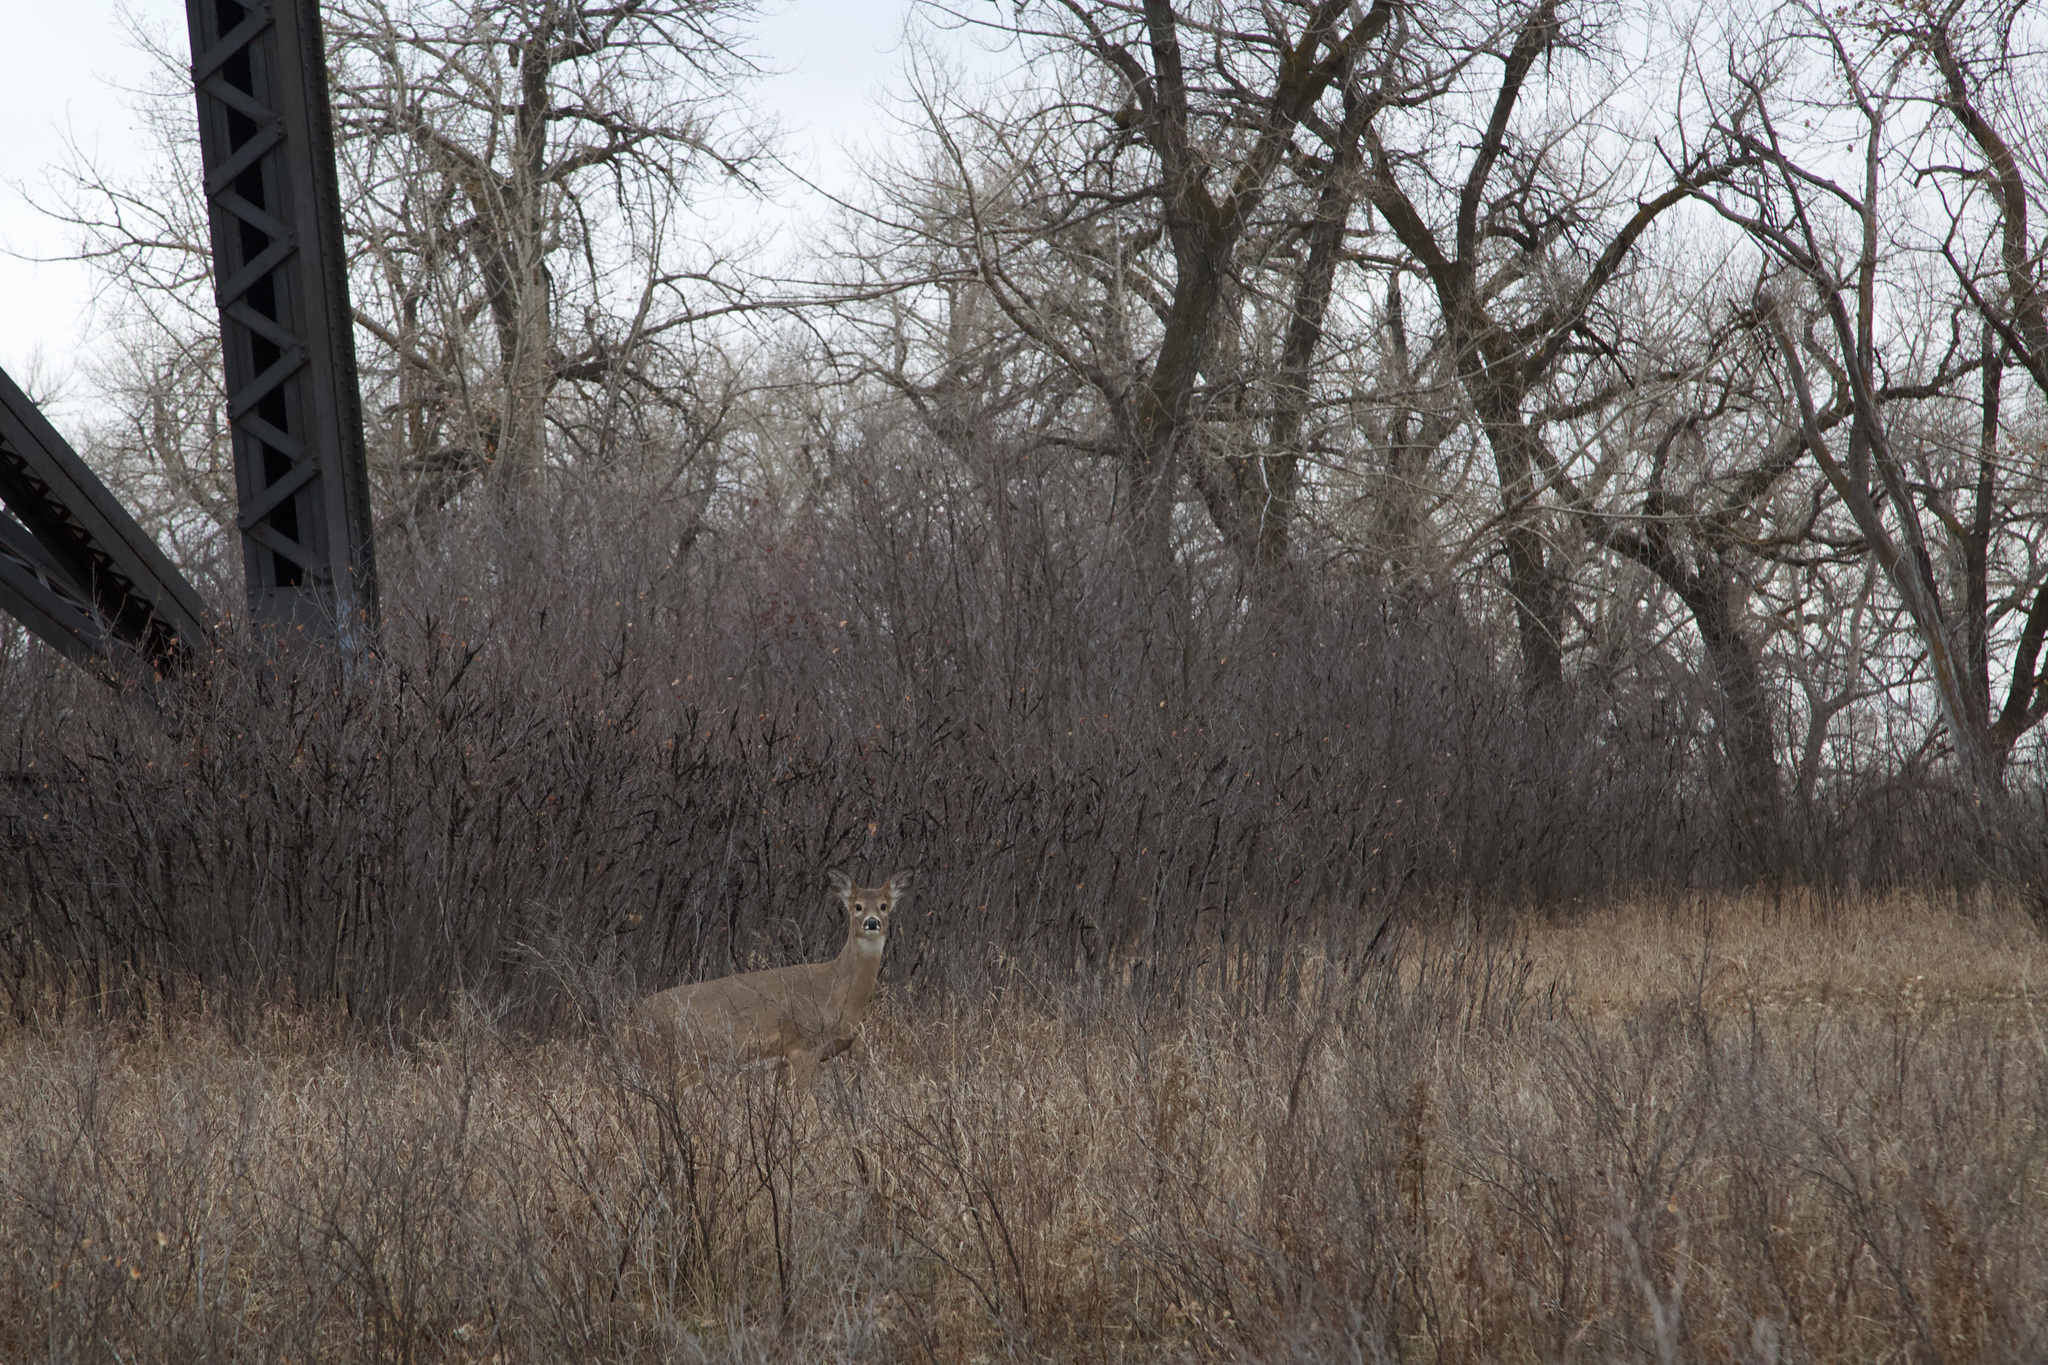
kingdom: Animalia
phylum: Chordata
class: Mammalia
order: Artiodactyla
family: Cervidae
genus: Odocoileus
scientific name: Odocoileus virginianus
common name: White-tailed deer
